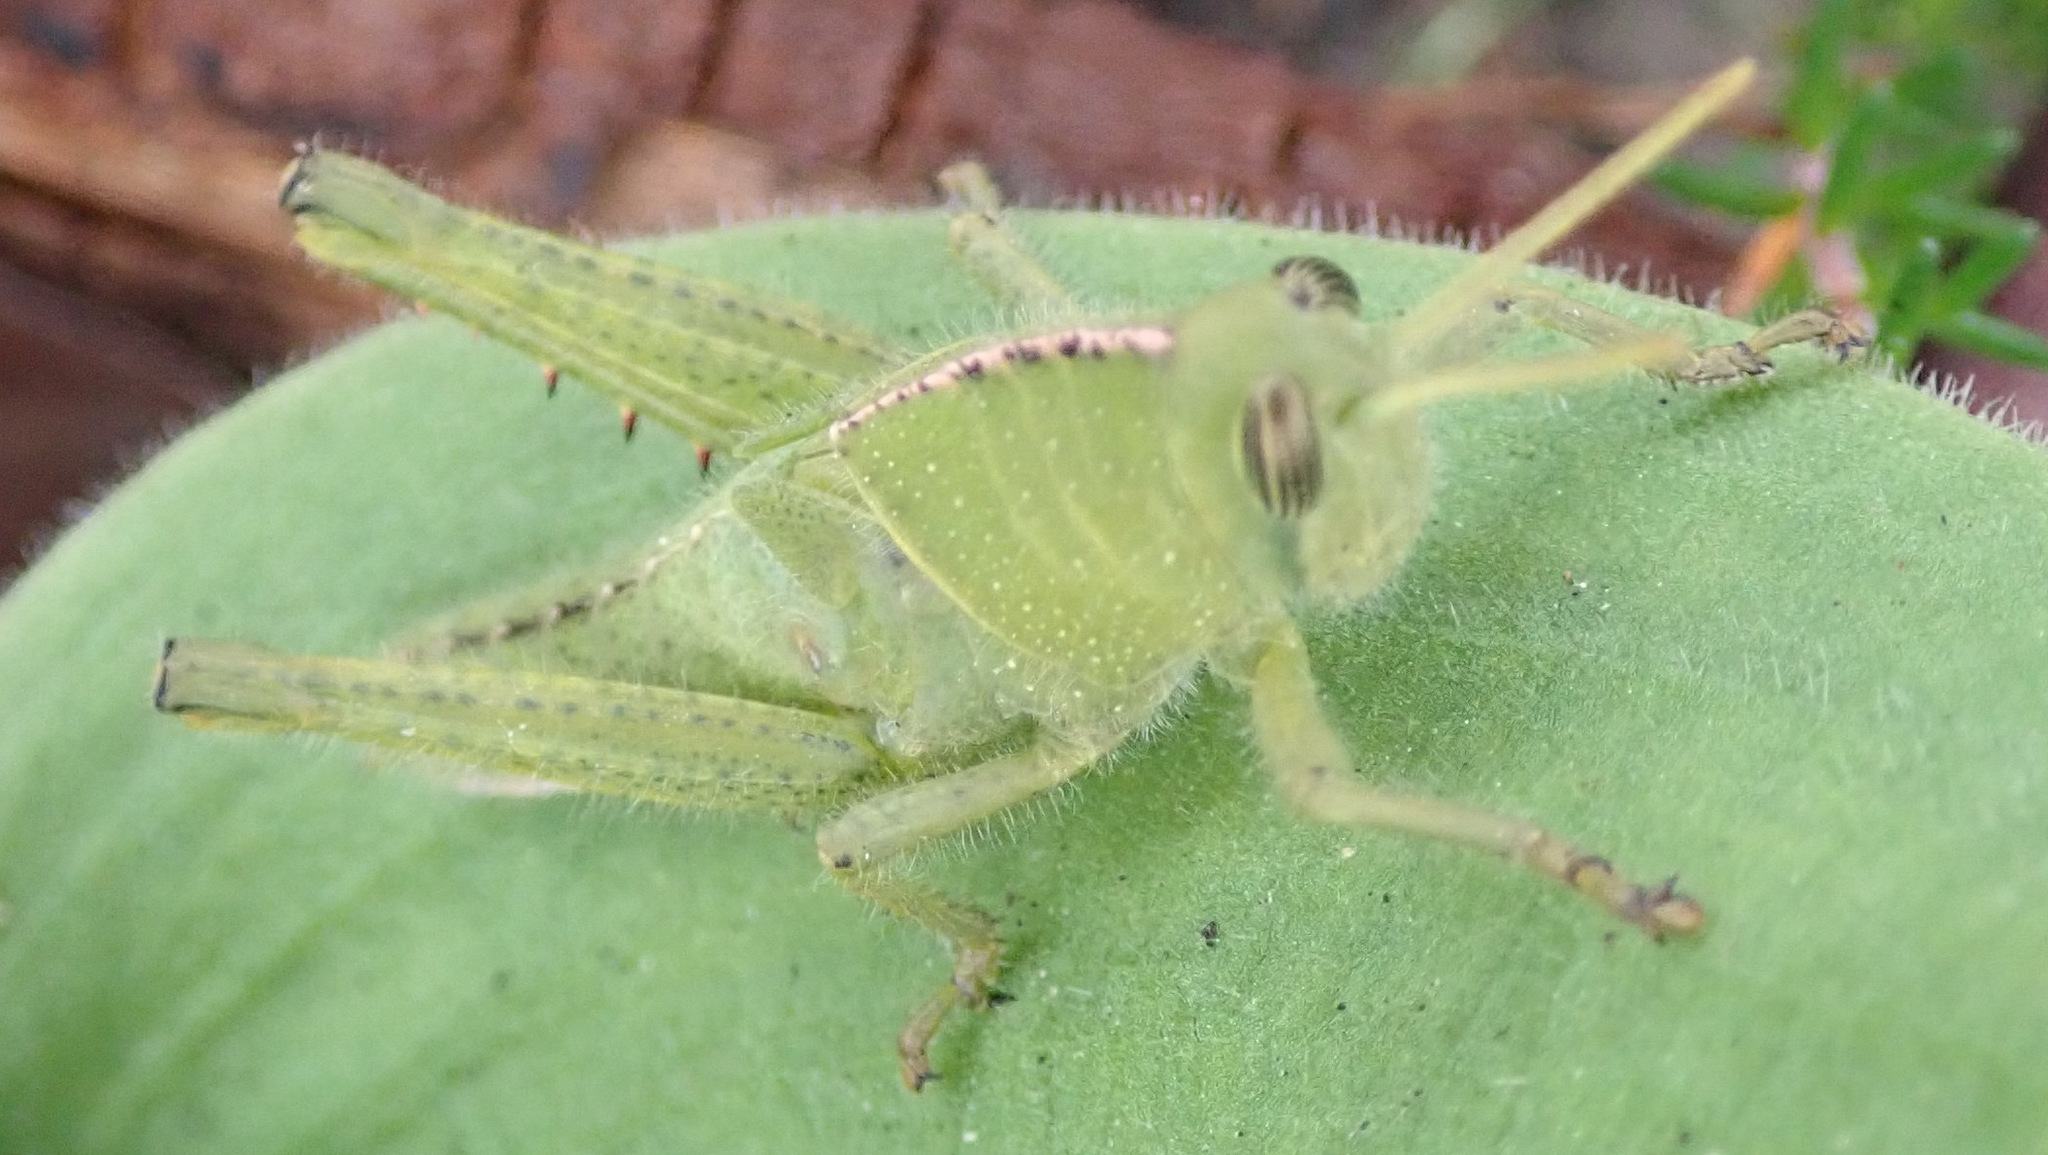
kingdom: Animalia
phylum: Arthropoda
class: Insecta
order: Orthoptera
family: Acrididae
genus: Acanthacris
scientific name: Acanthacris ruficornis
